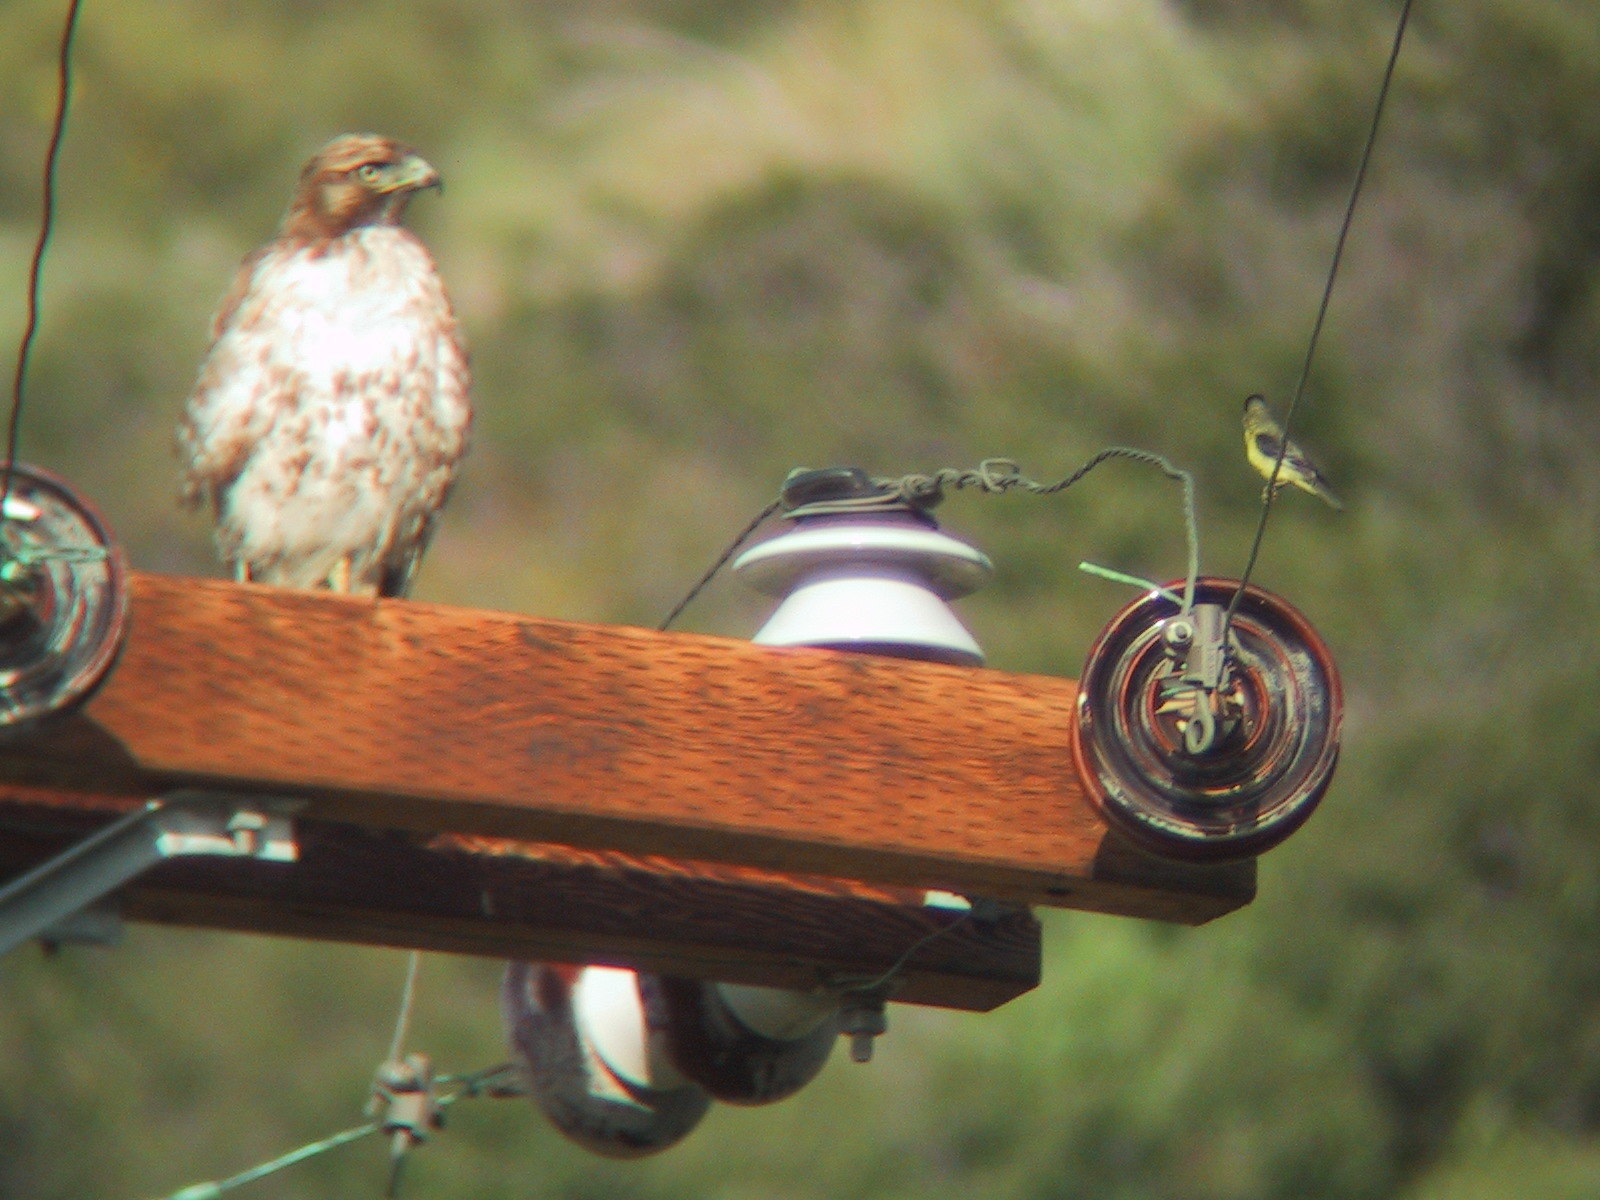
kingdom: Animalia
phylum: Chordata
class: Aves
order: Passeriformes
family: Fringillidae
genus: Spinus
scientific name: Spinus psaltria
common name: Lesser goldfinch
